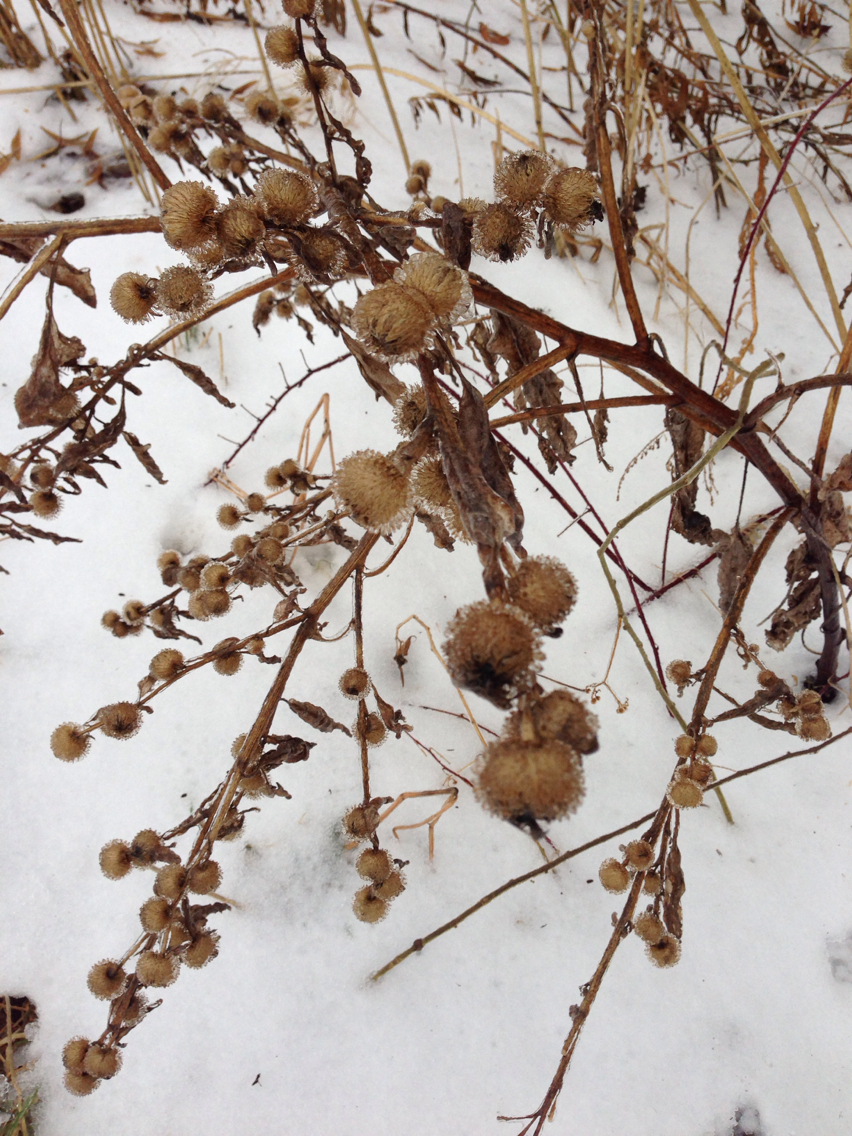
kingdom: Plantae
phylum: Tracheophyta
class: Magnoliopsida
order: Asterales
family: Asteraceae
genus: Arctium
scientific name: Arctium minus
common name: Lesser burdock
